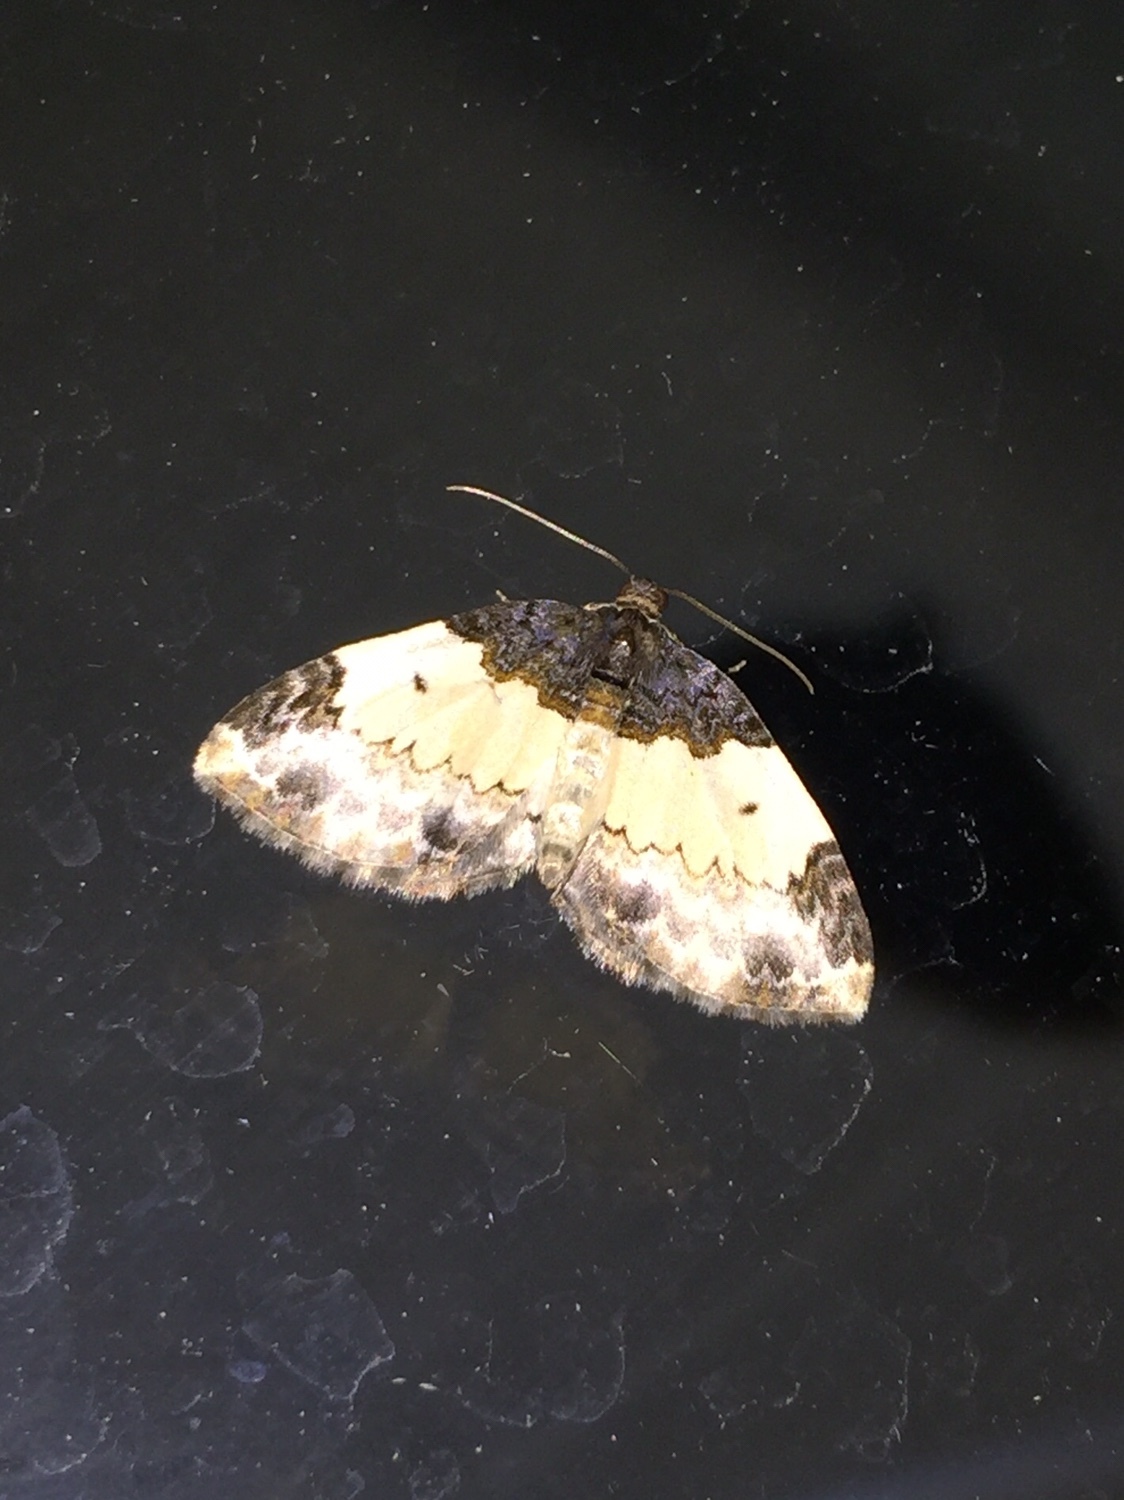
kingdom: Animalia
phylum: Arthropoda
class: Insecta
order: Lepidoptera
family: Geometridae
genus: Mesoleuca
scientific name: Mesoleuca ruficillata
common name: White-ribboned carpet moth
